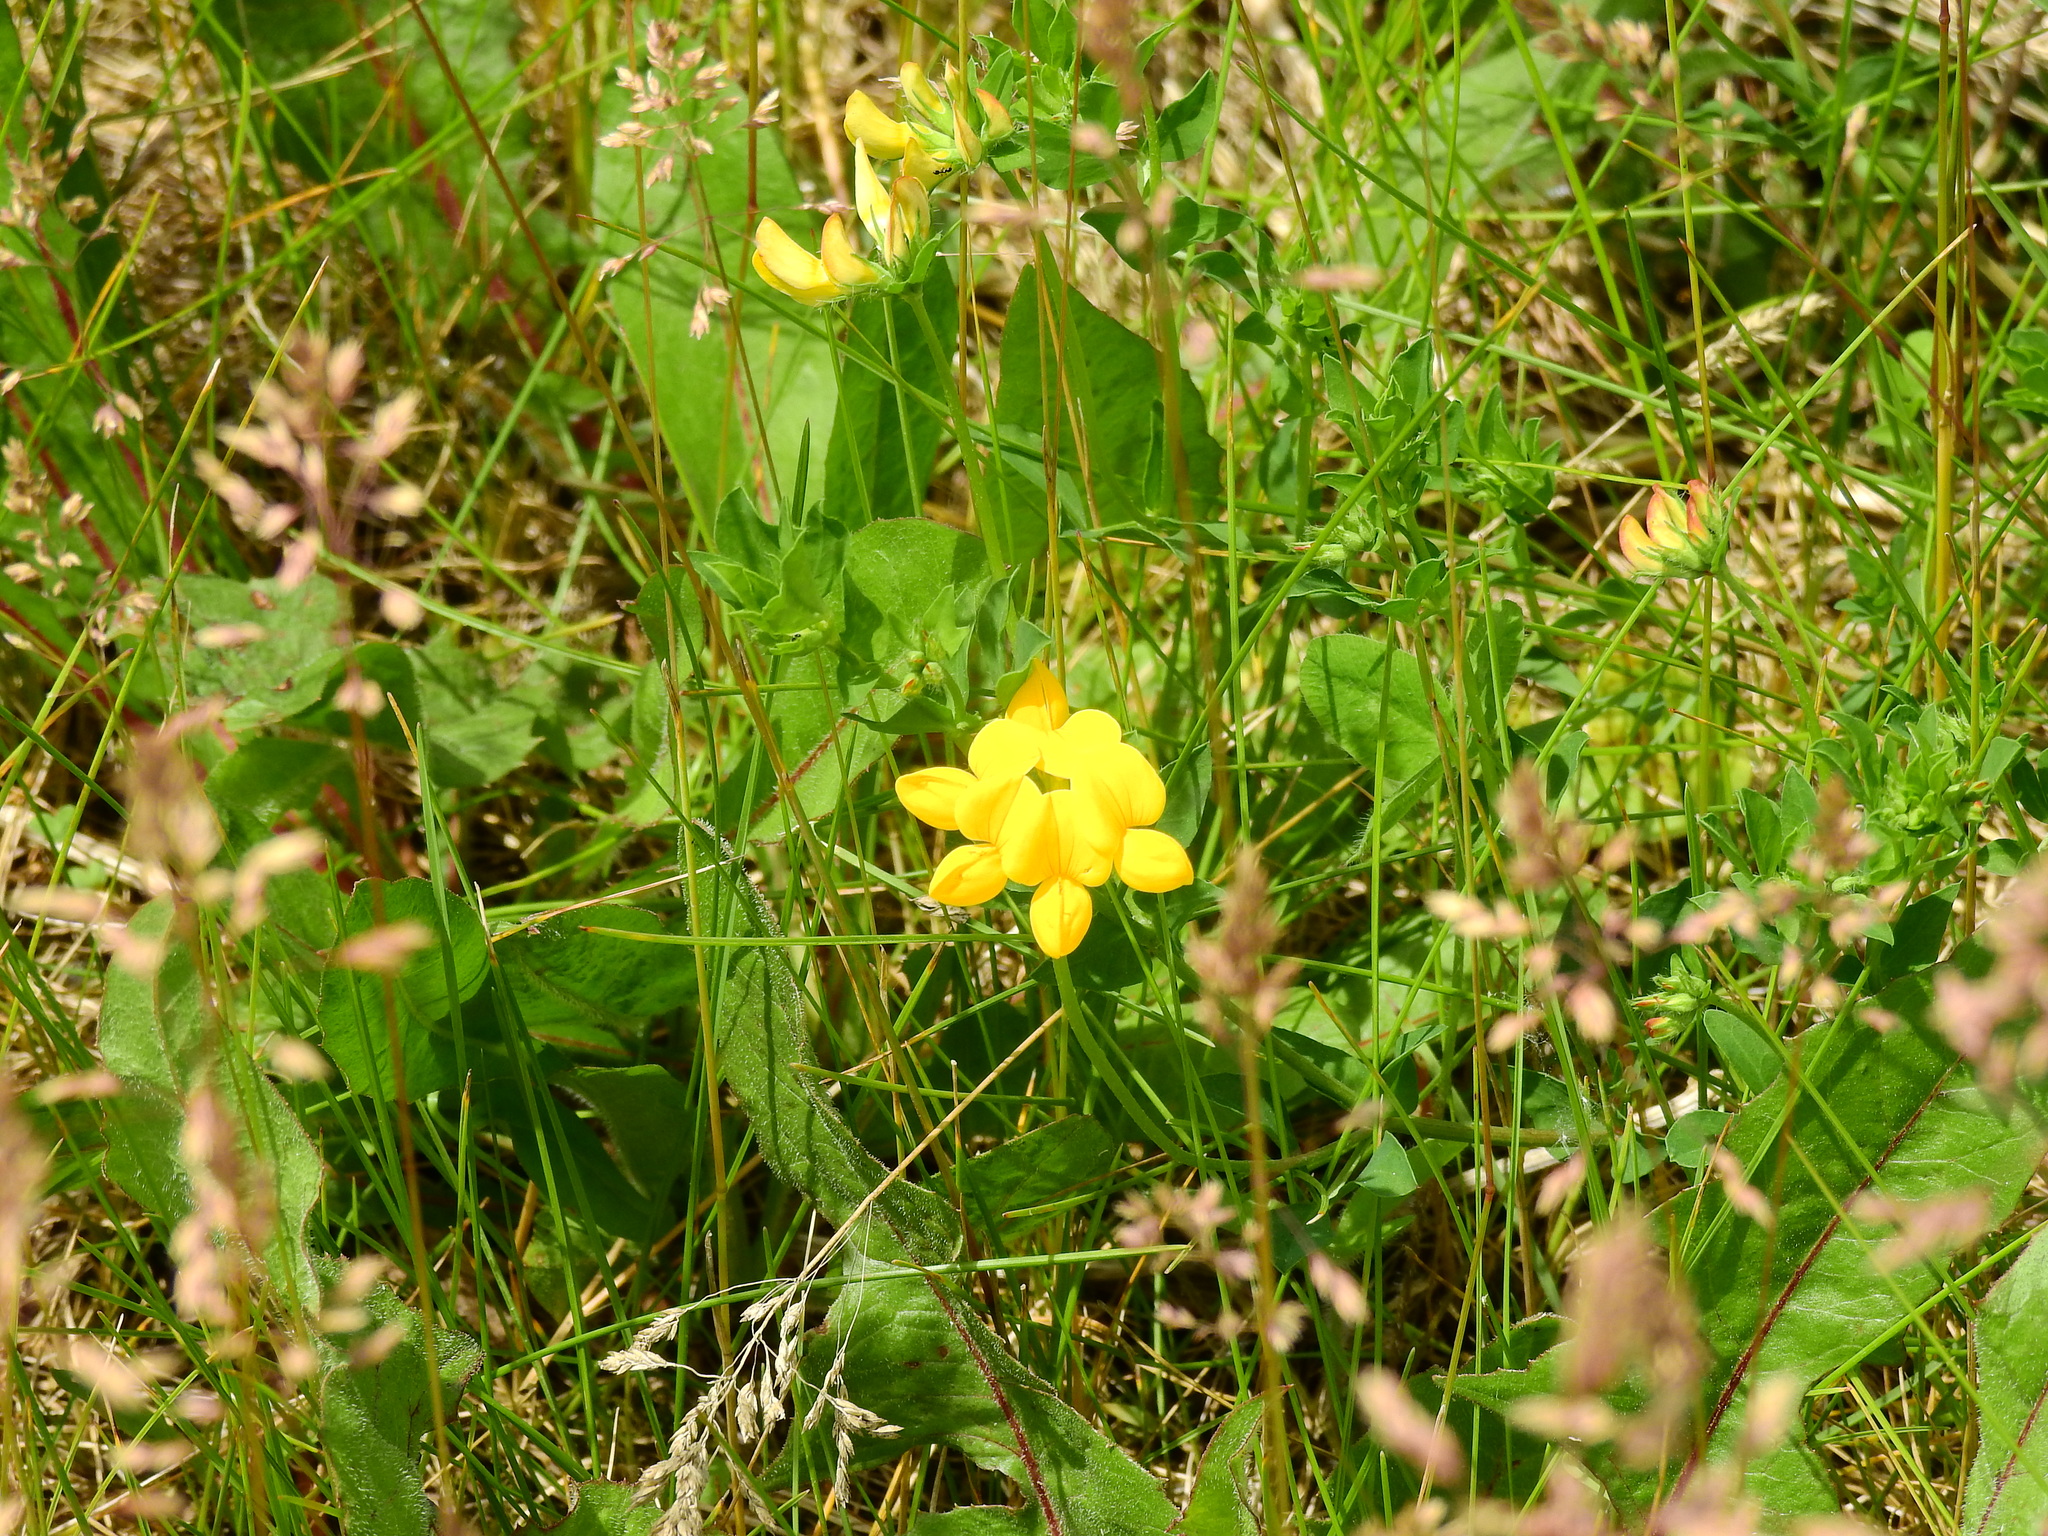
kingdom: Plantae
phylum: Tracheophyta
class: Magnoliopsida
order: Fabales
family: Fabaceae
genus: Lotus
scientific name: Lotus corniculatus
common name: Common bird's-foot-trefoil
